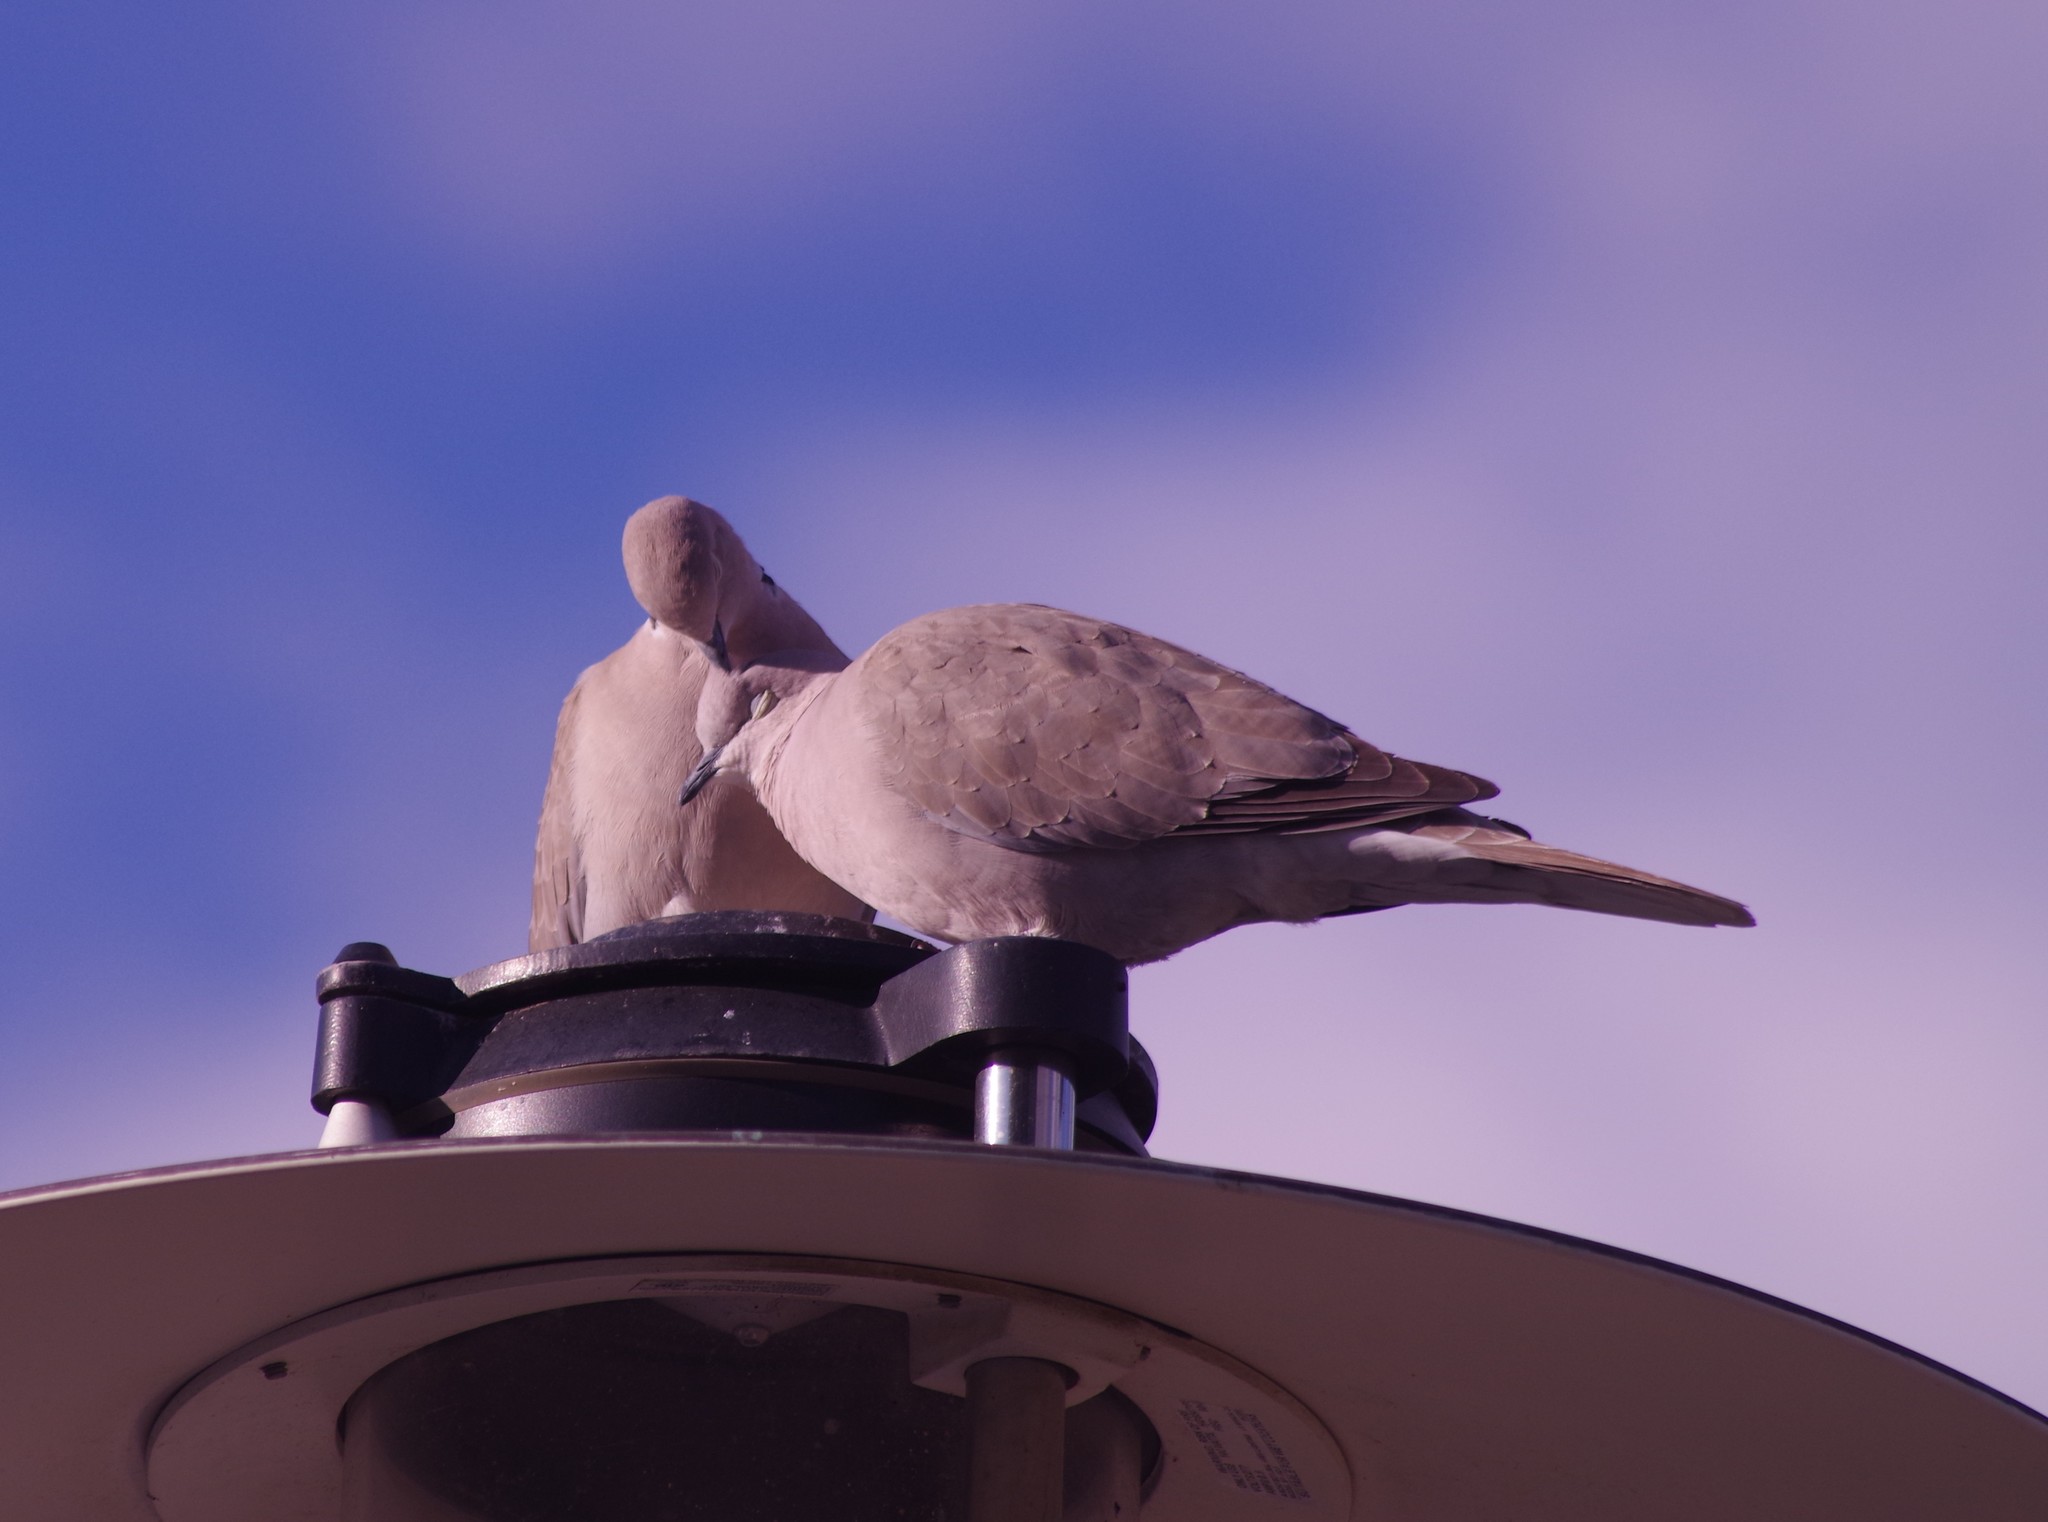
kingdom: Animalia
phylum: Chordata
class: Aves
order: Columbiformes
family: Columbidae
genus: Streptopelia
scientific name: Streptopelia decaocto
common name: Eurasian collared dove
